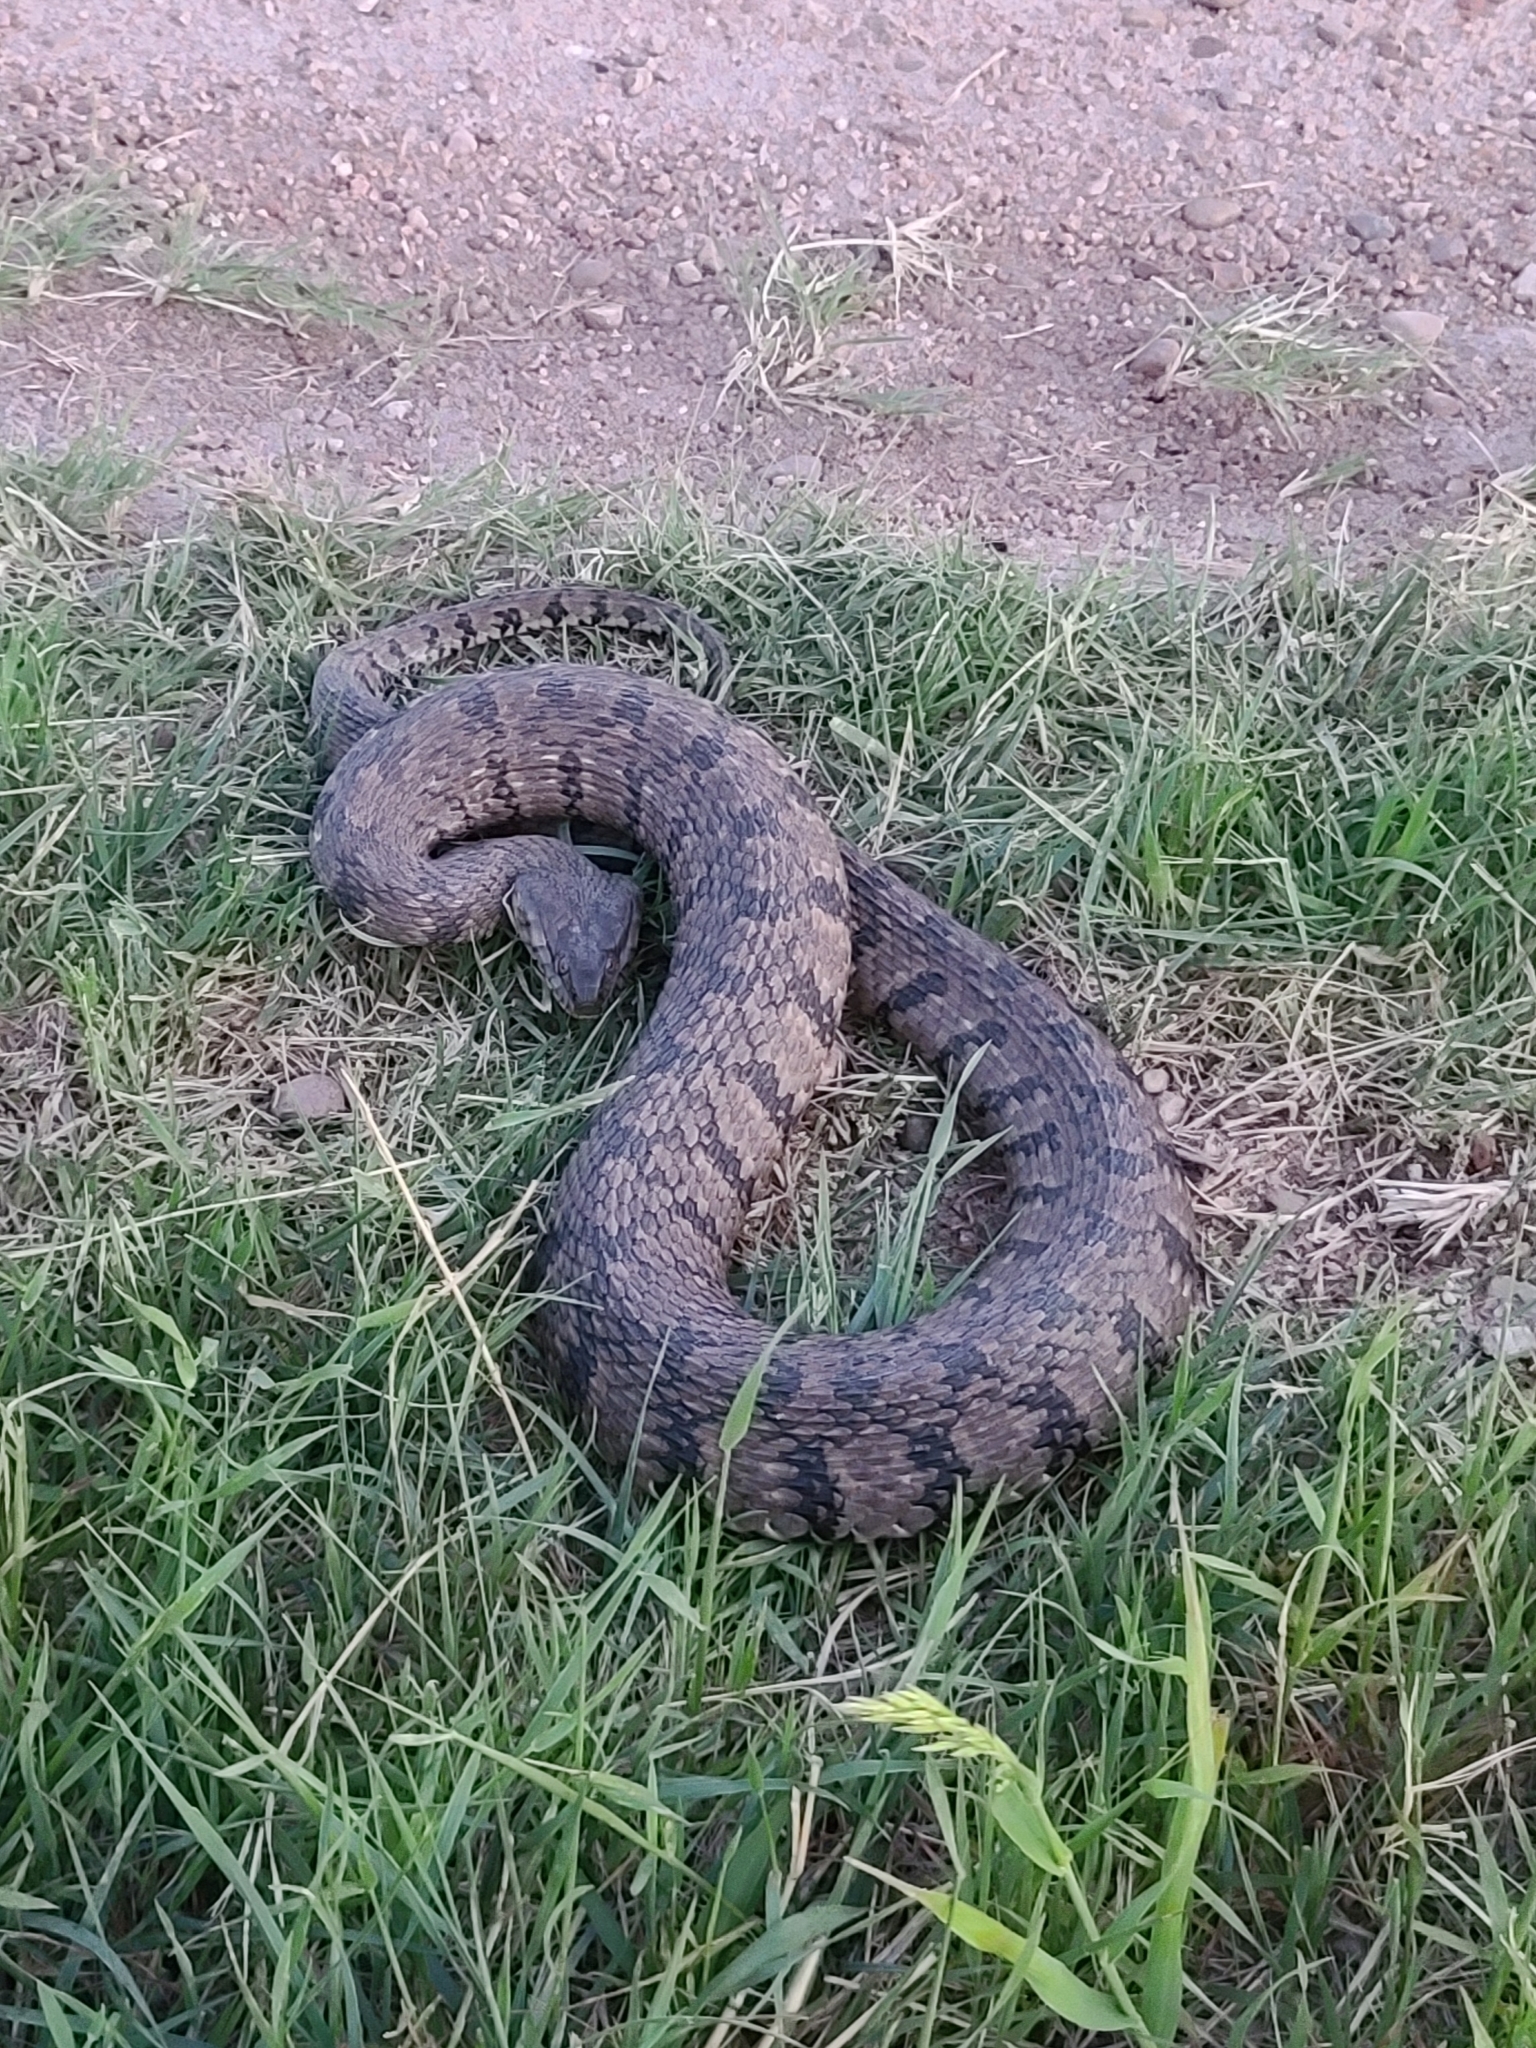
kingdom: Animalia
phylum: Chordata
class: Squamata
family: Colubridae
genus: Nerodia
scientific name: Nerodia rhombifer
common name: Diamondback water snake
